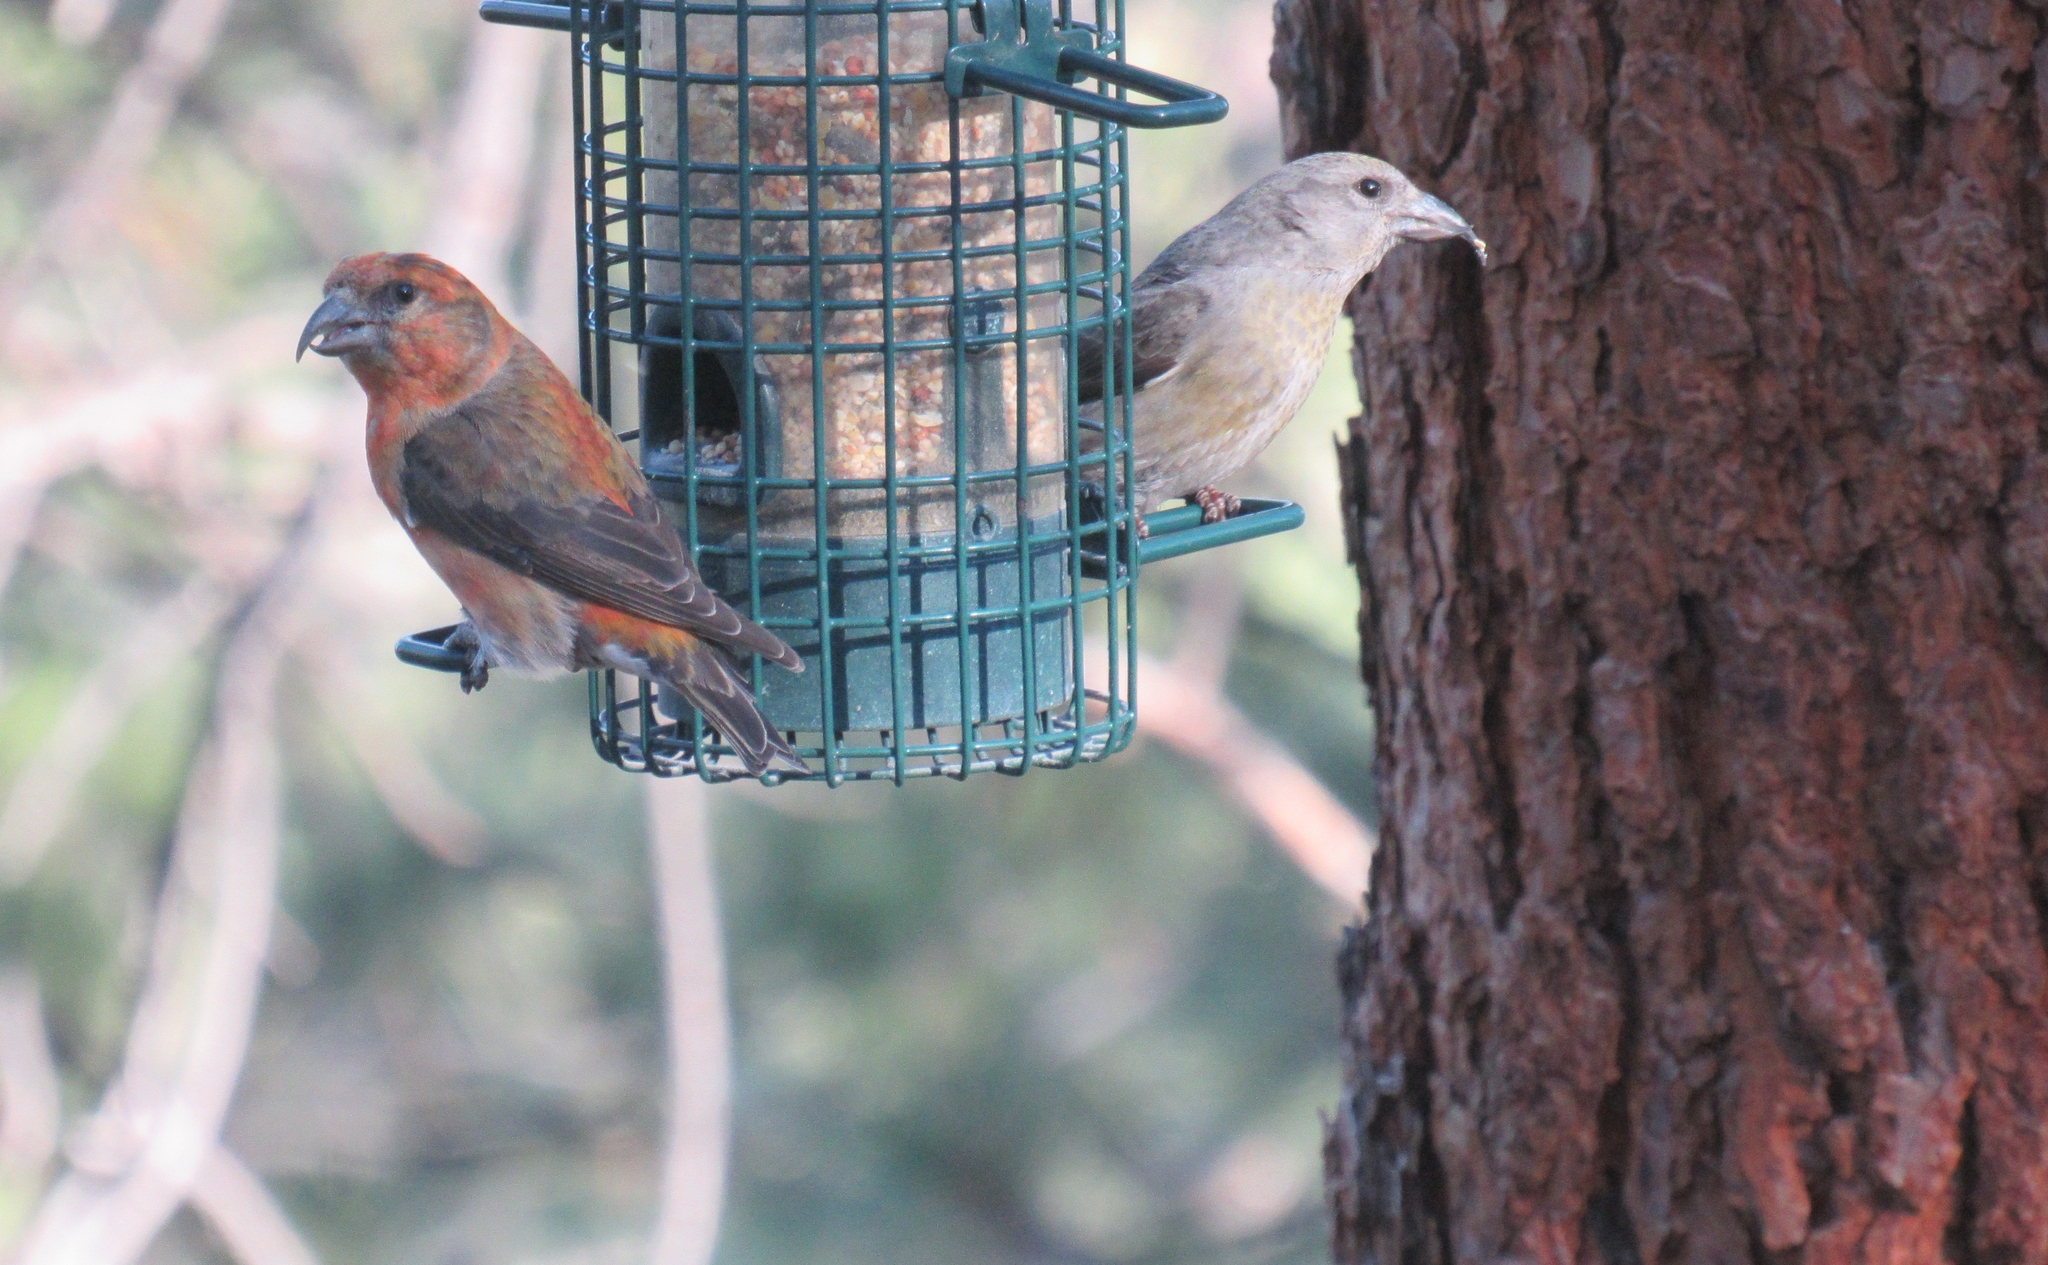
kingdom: Animalia
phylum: Chordata
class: Aves
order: Passeriformes
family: Fringillidae
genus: Loxia
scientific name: Loxia curvirostra
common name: Red crossbill
